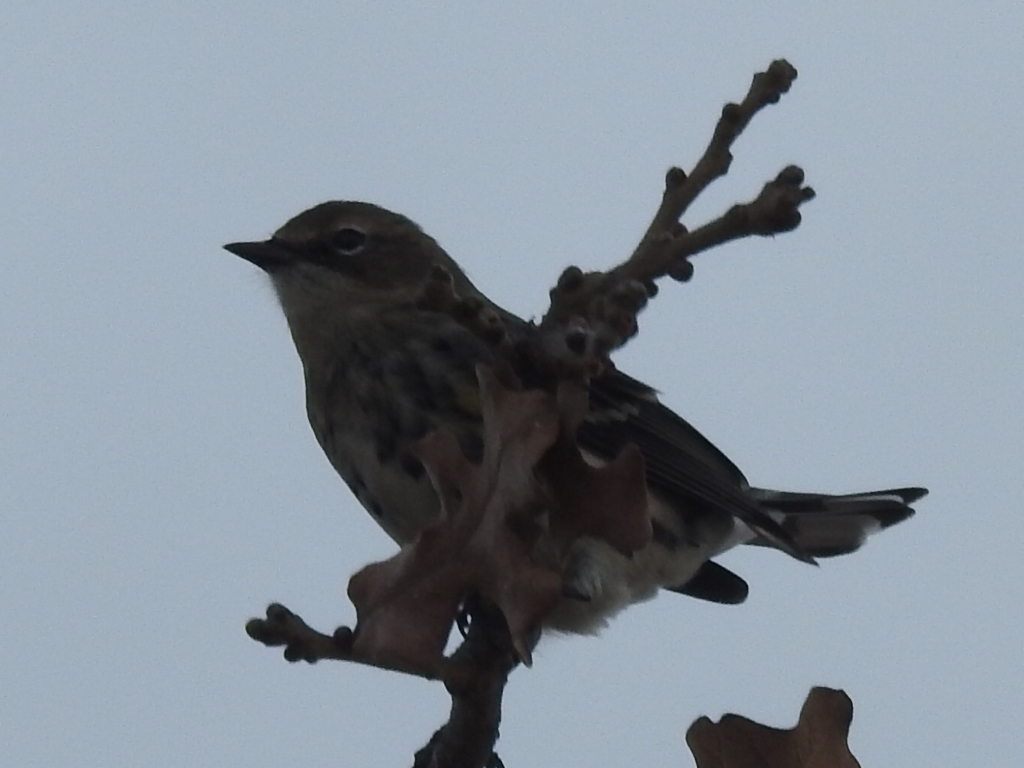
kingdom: Animalia
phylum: Chordata
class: Aves
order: Passeriformes
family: Parulidae
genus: Setophaga
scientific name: Setophaga coronata
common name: Myrtle warbler
